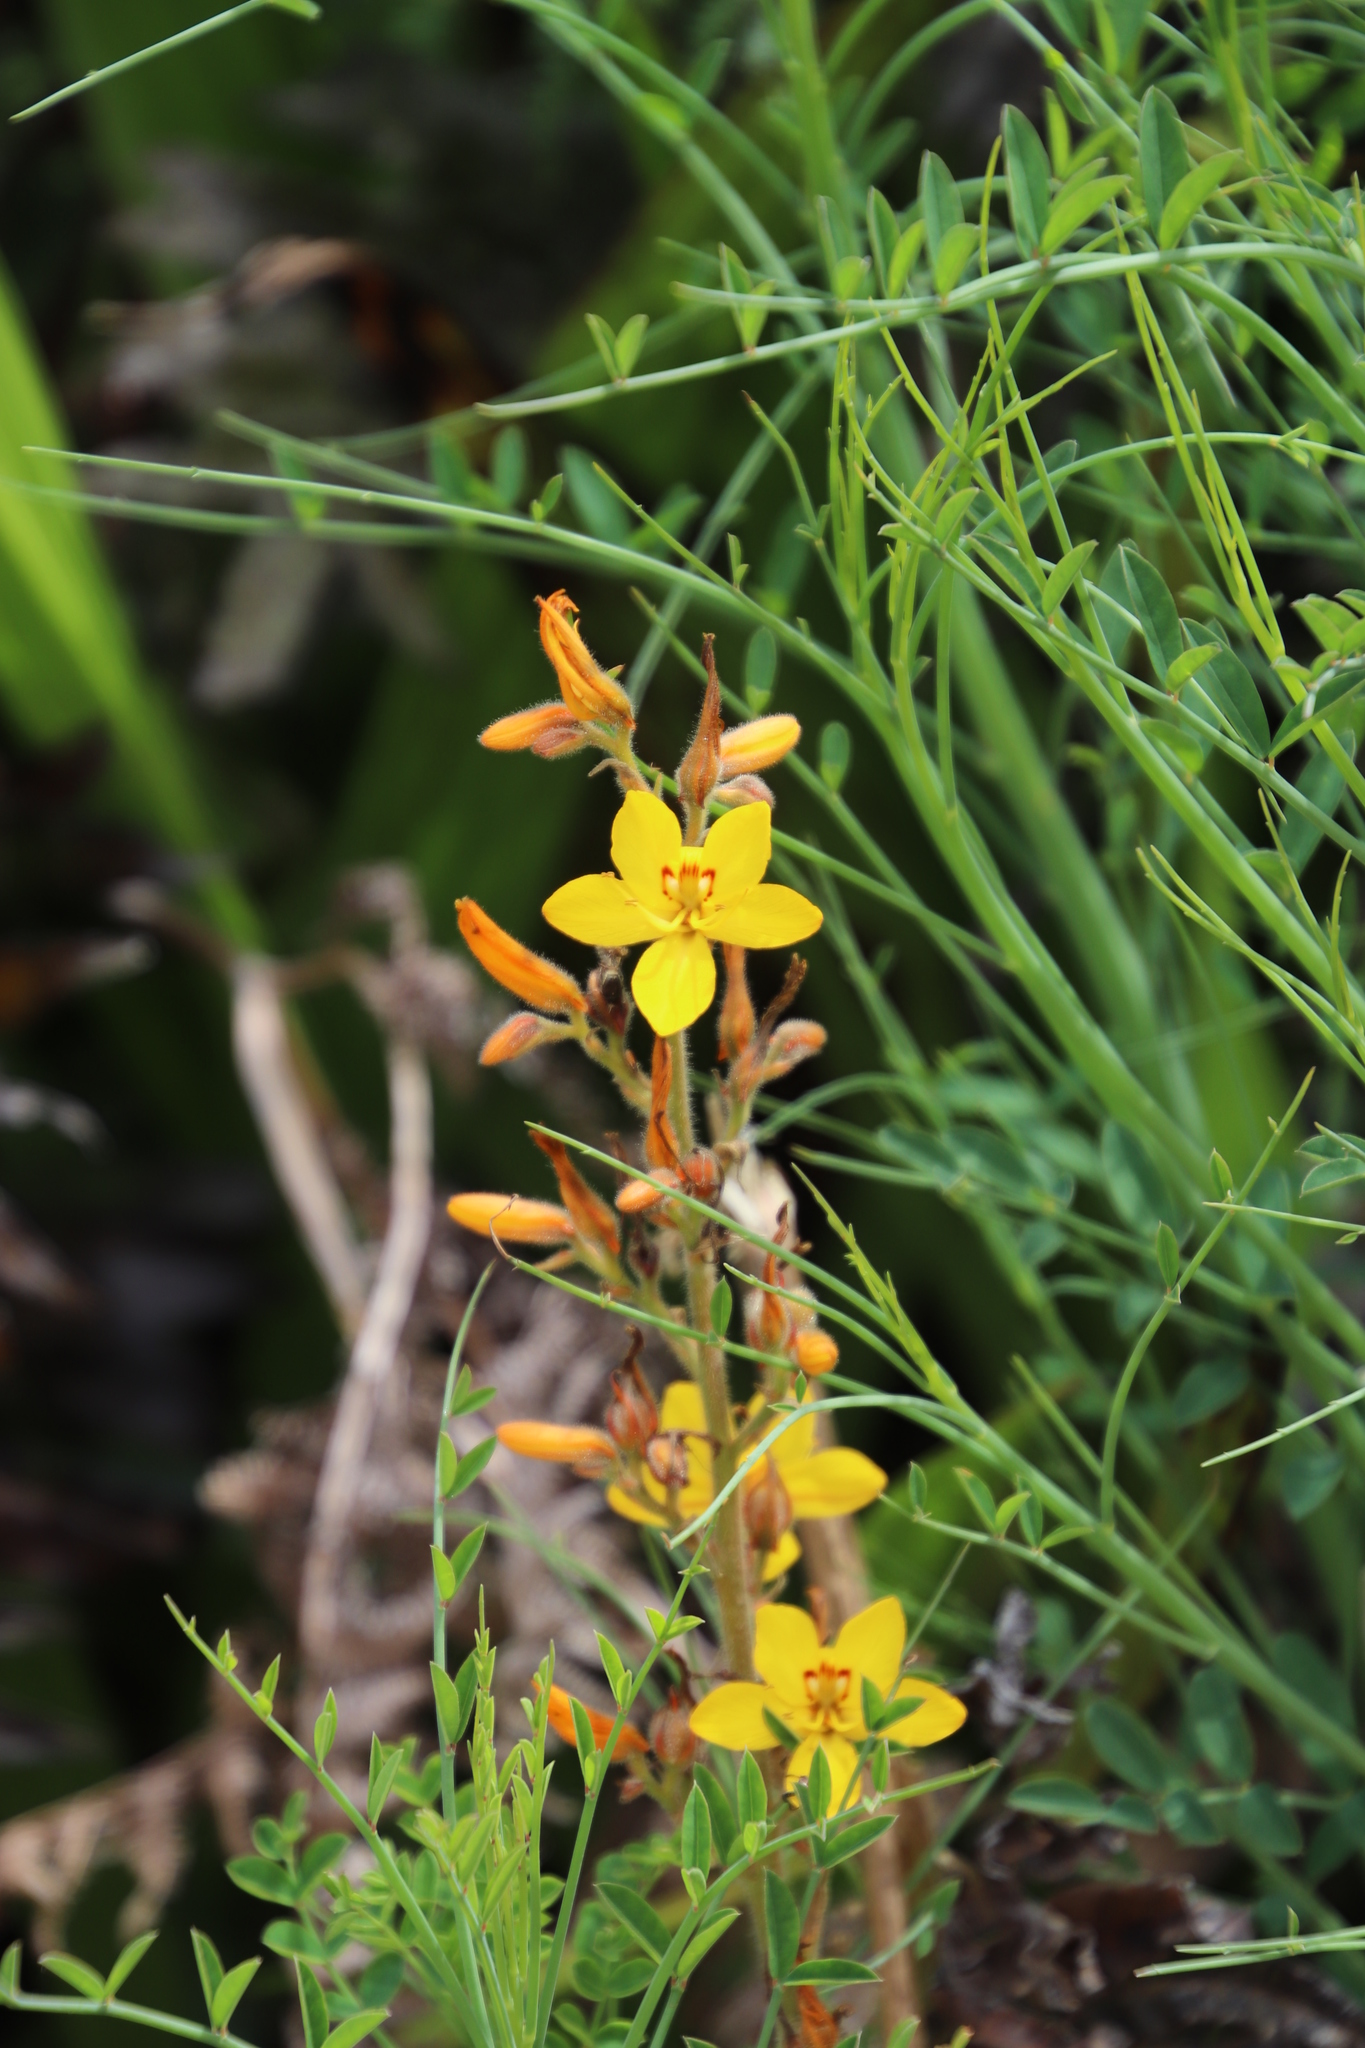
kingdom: Plantae
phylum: Tracheophyta
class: Liliopsida
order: Commelinales
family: Haemodoraceae
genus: Wachendorfia
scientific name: Wachendorfia paniculata
